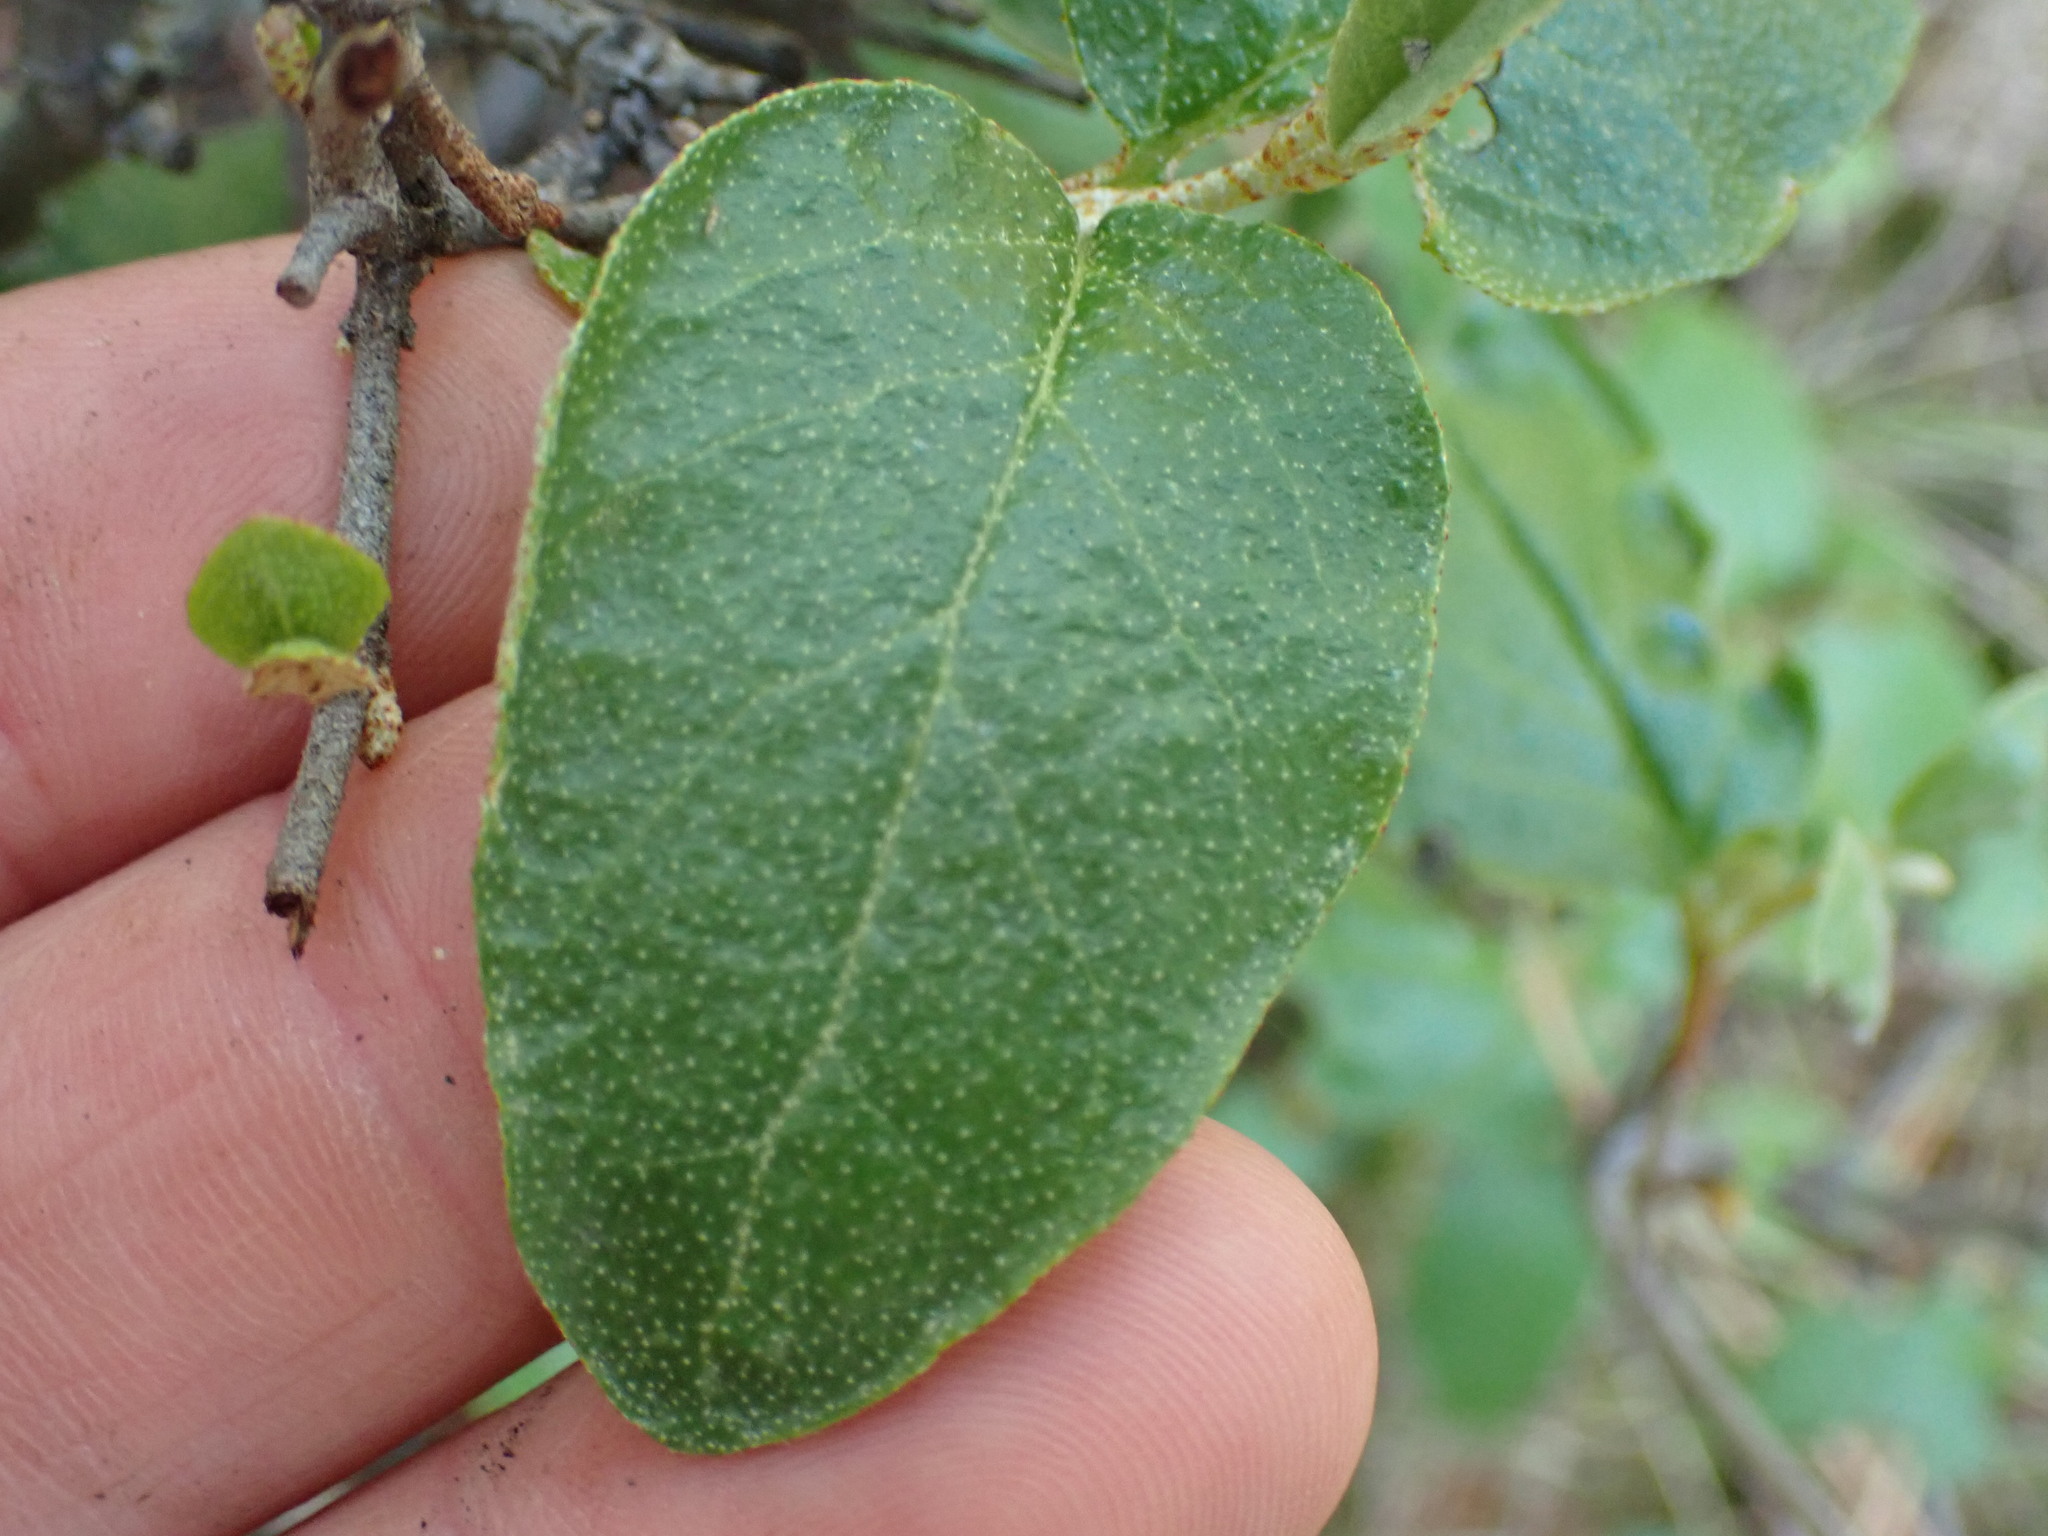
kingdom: Plantae
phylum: Tracheophyta
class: Magnoliopsida
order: Rosales
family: Elaeagnaceae
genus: Shepherdia
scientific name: Shepherdia canadensis
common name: Soapberry
